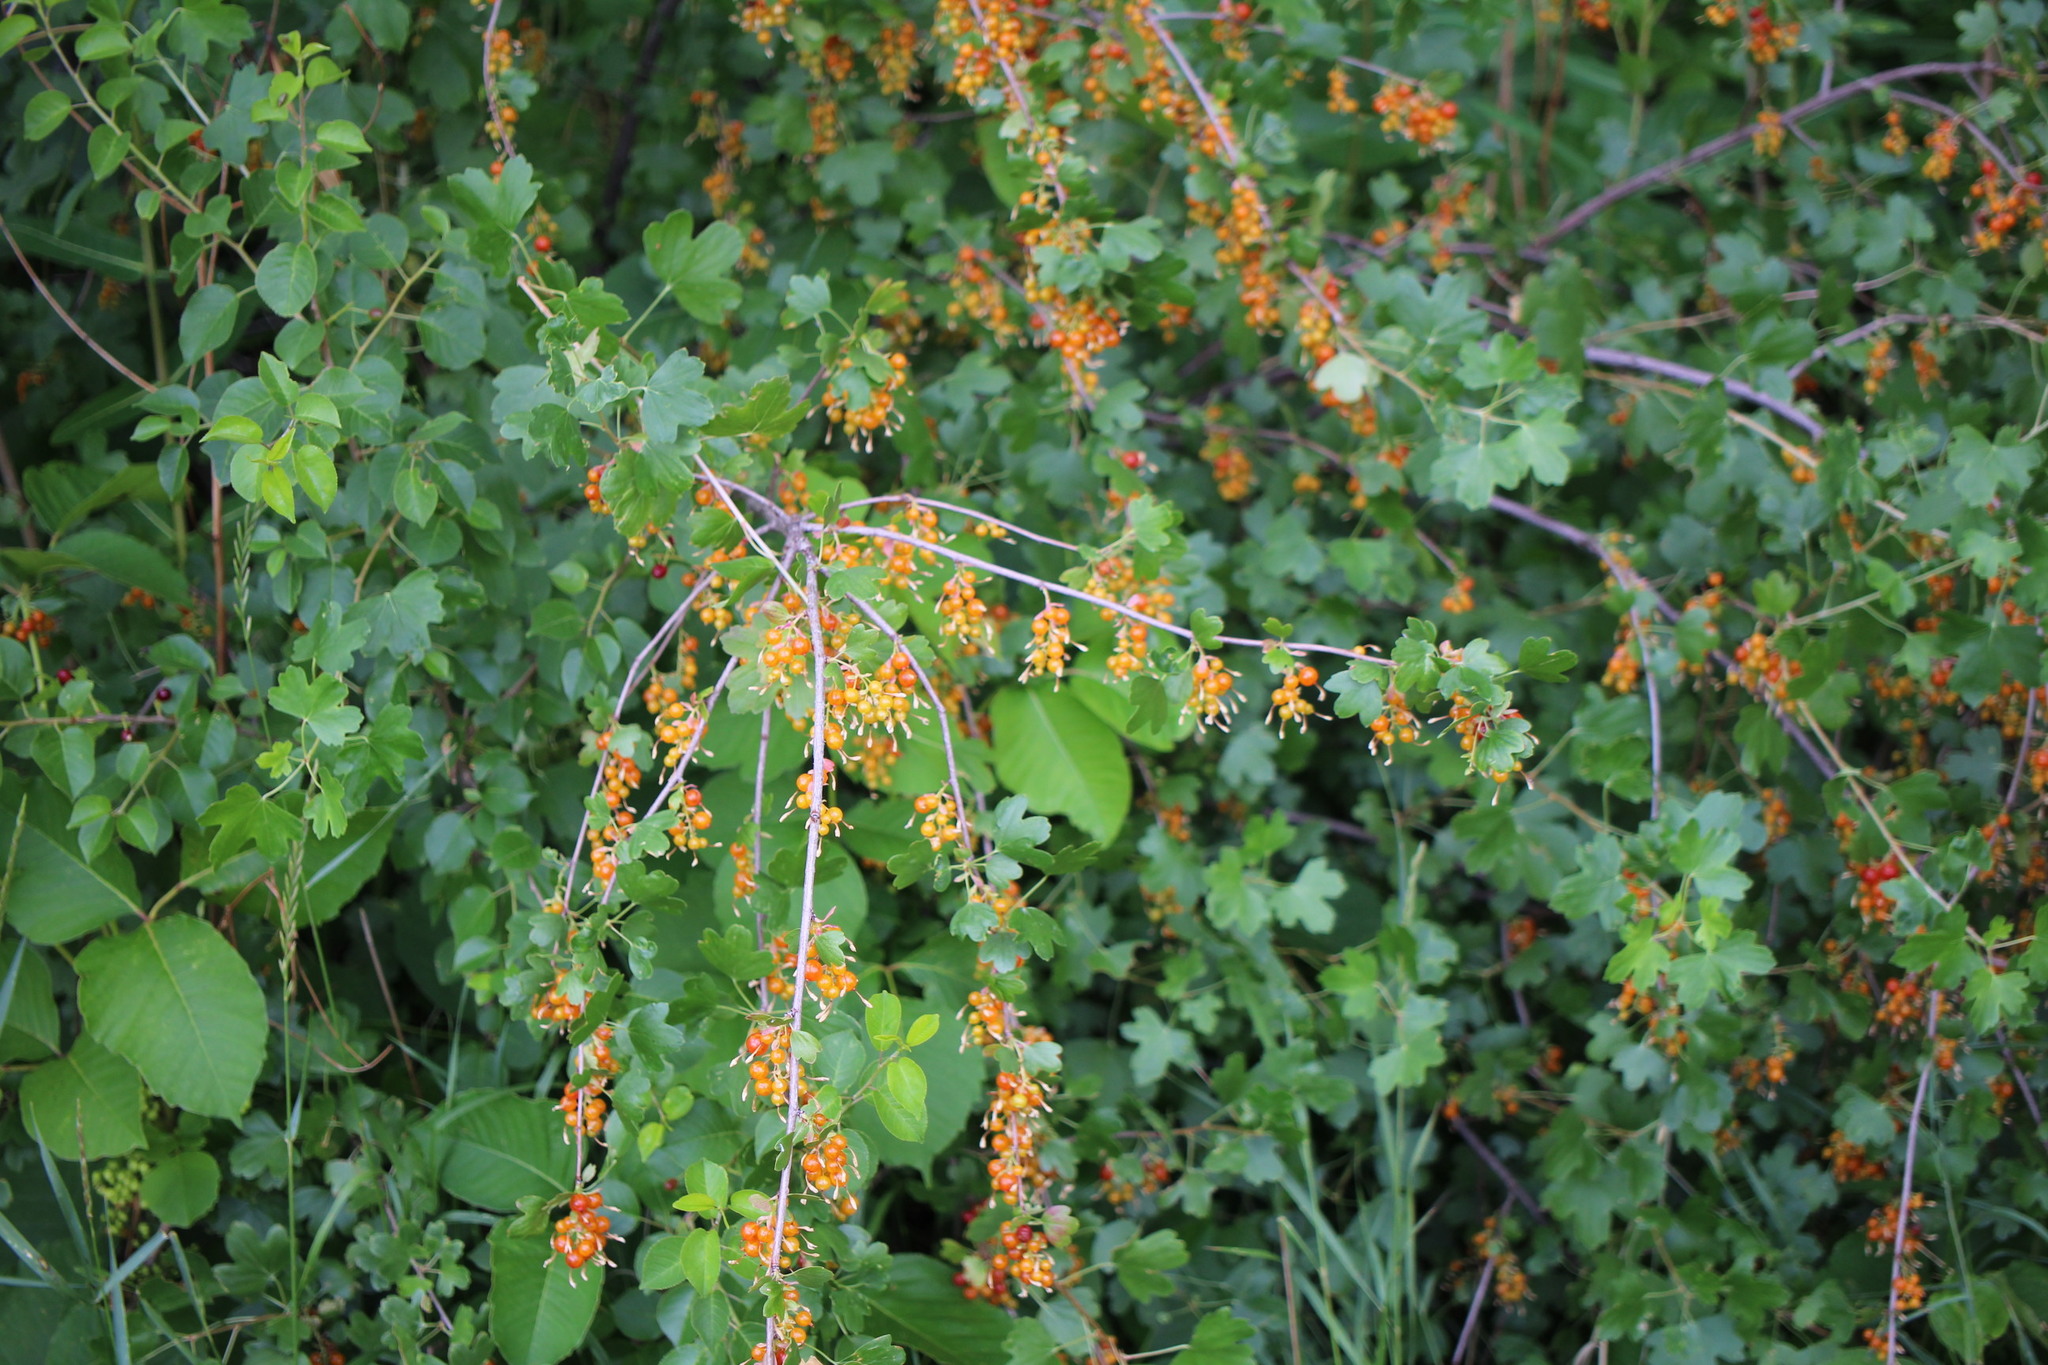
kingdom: Plantae
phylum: Tracheophyta
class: Magnoliopsida
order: Saxifragales
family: Grossulariaceae
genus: Ribes
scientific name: Ribes aureum
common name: Golden currant
